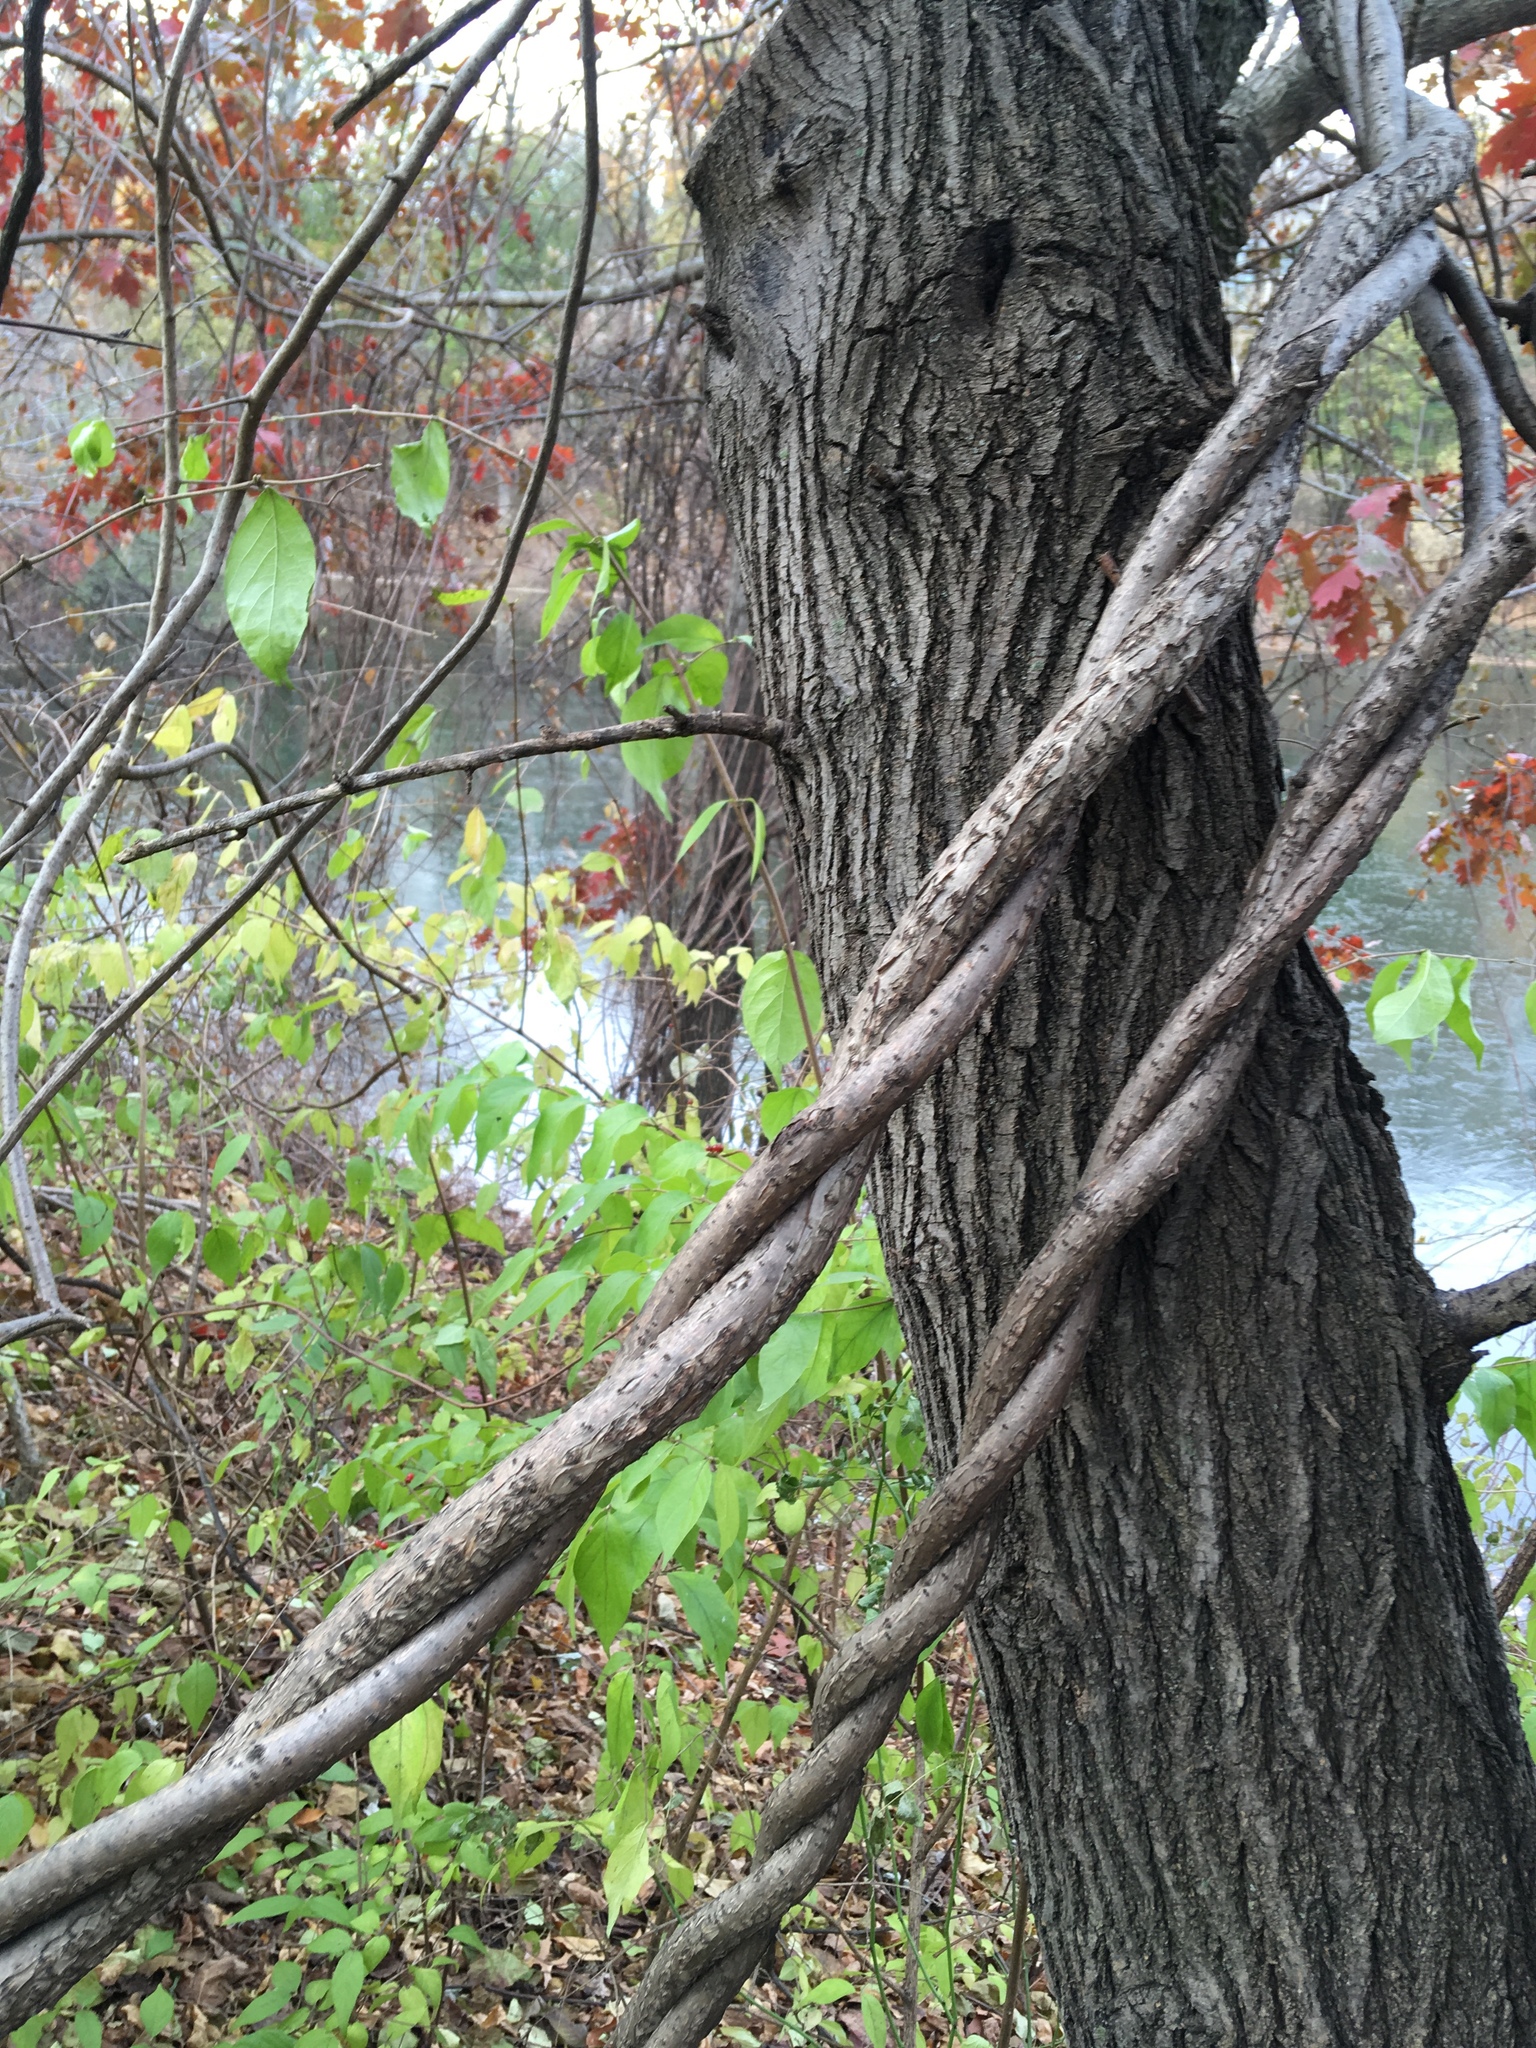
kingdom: Plantae
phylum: Tracheophyta
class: Magnoliopsida
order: Celastrales
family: Celastraceae
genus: Celastrus
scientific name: Celastrus orbiculatus
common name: Oriental bittersweet
